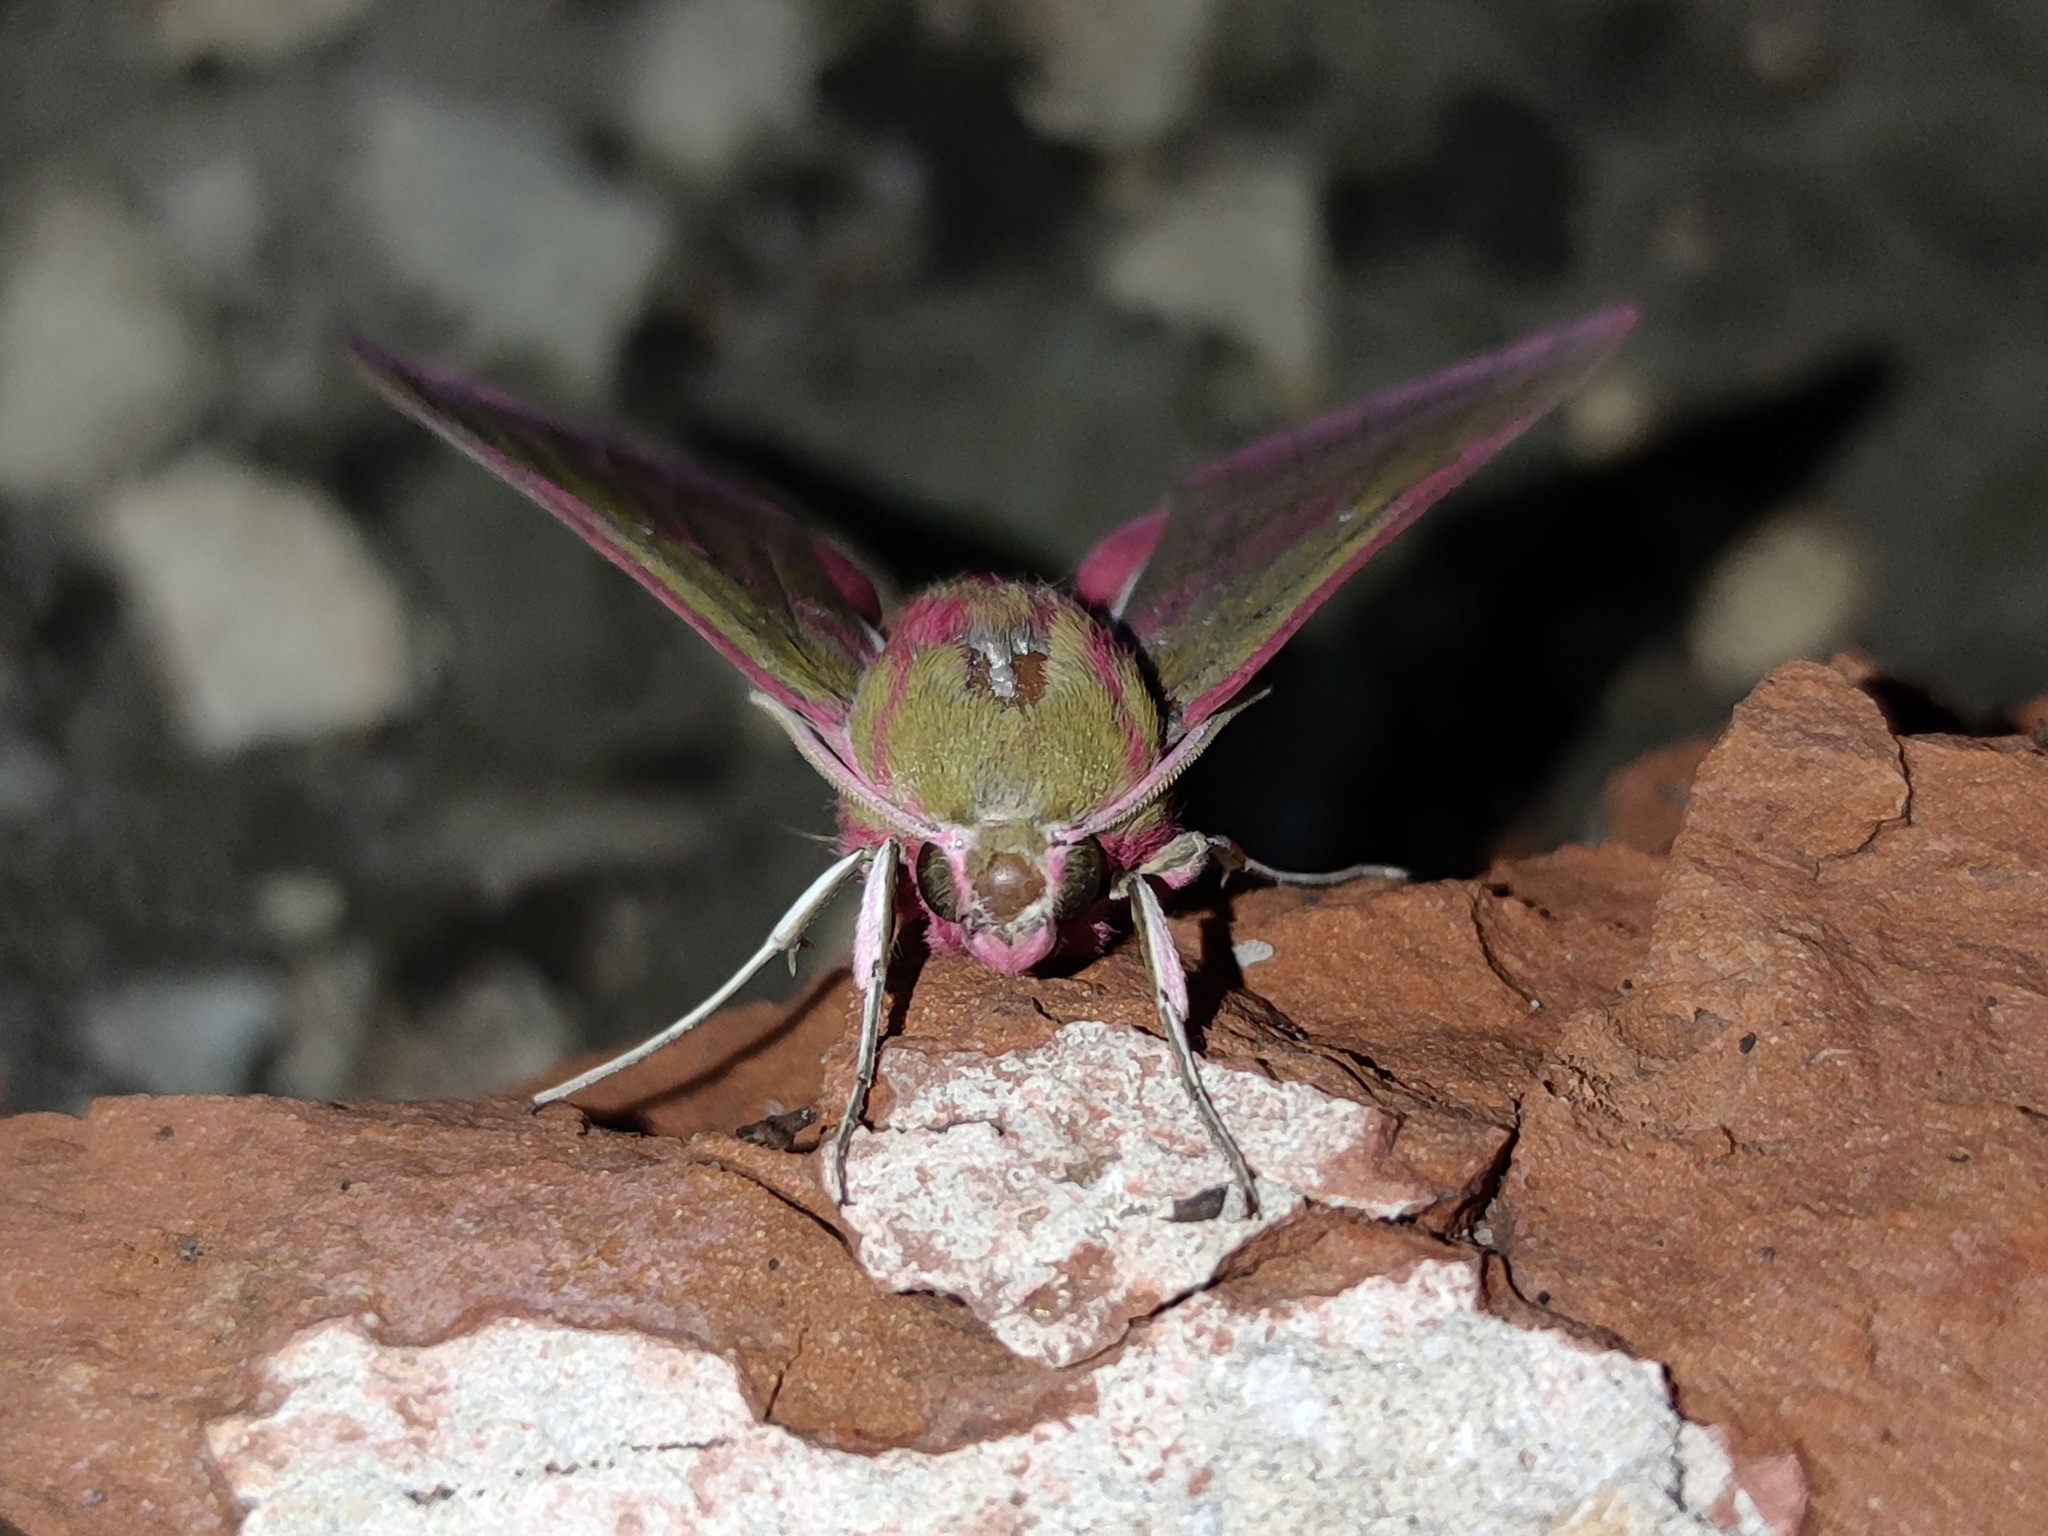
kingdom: Animalia
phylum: Arthropoda
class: Insecta
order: Lepidoptera
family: Sphingidae
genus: Deilephila
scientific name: Deilephila elpenor
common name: Elephant hawk-moth
